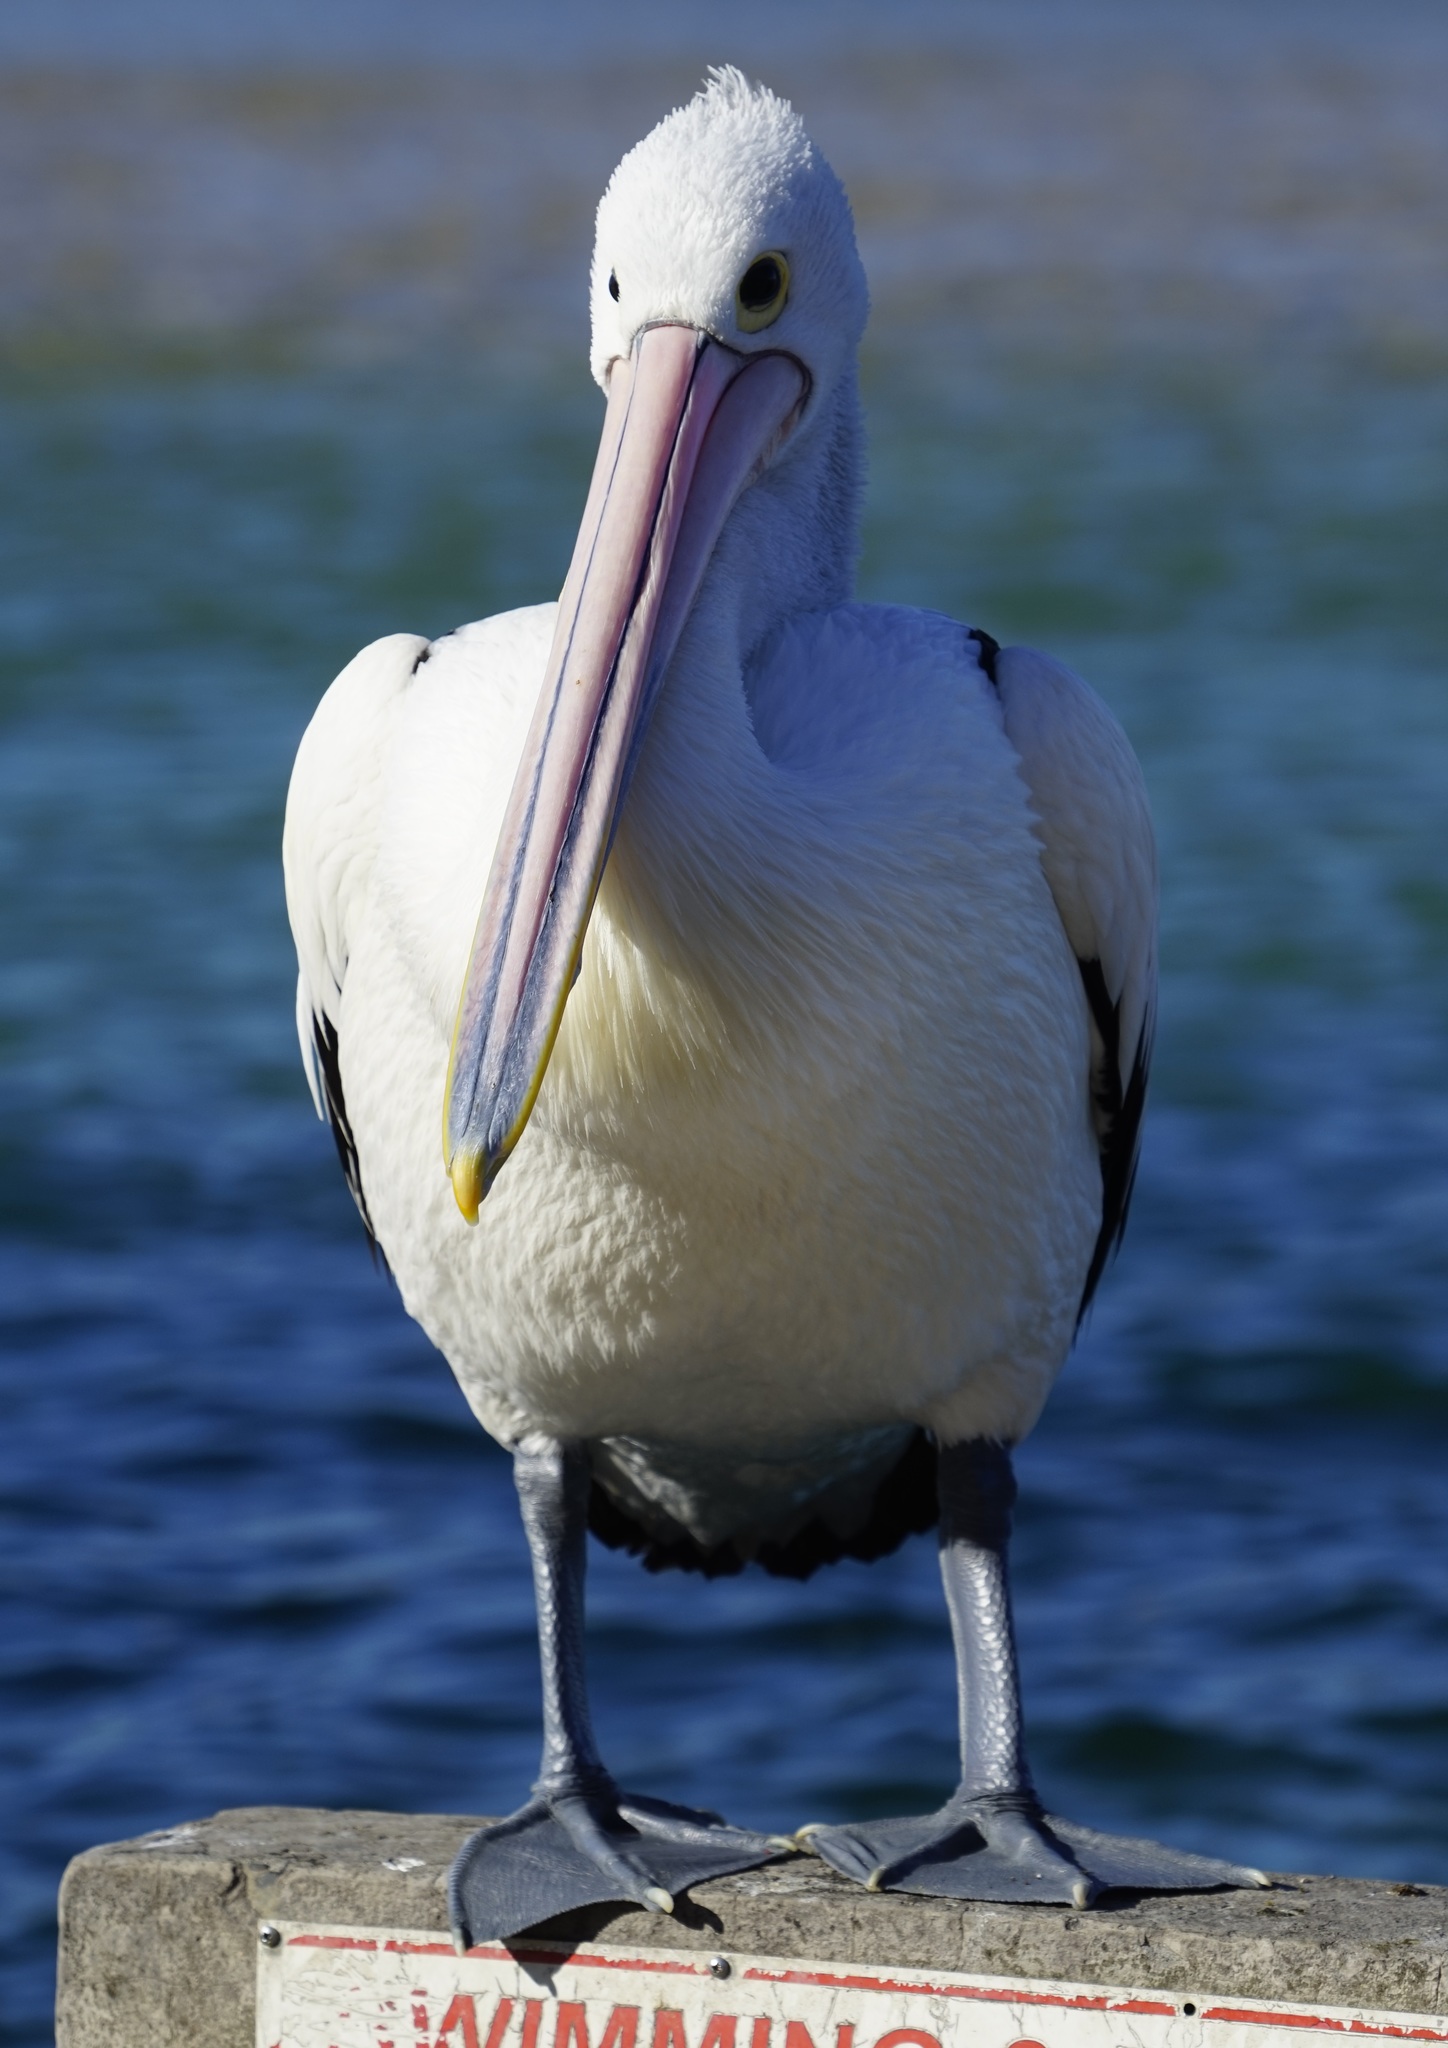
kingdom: Animalia
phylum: Chordata
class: Aves
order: Pelecaniformes
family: Pelecanidae
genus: Pelecanus
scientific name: Pelecanus conspicillatus
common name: Australian pelican
